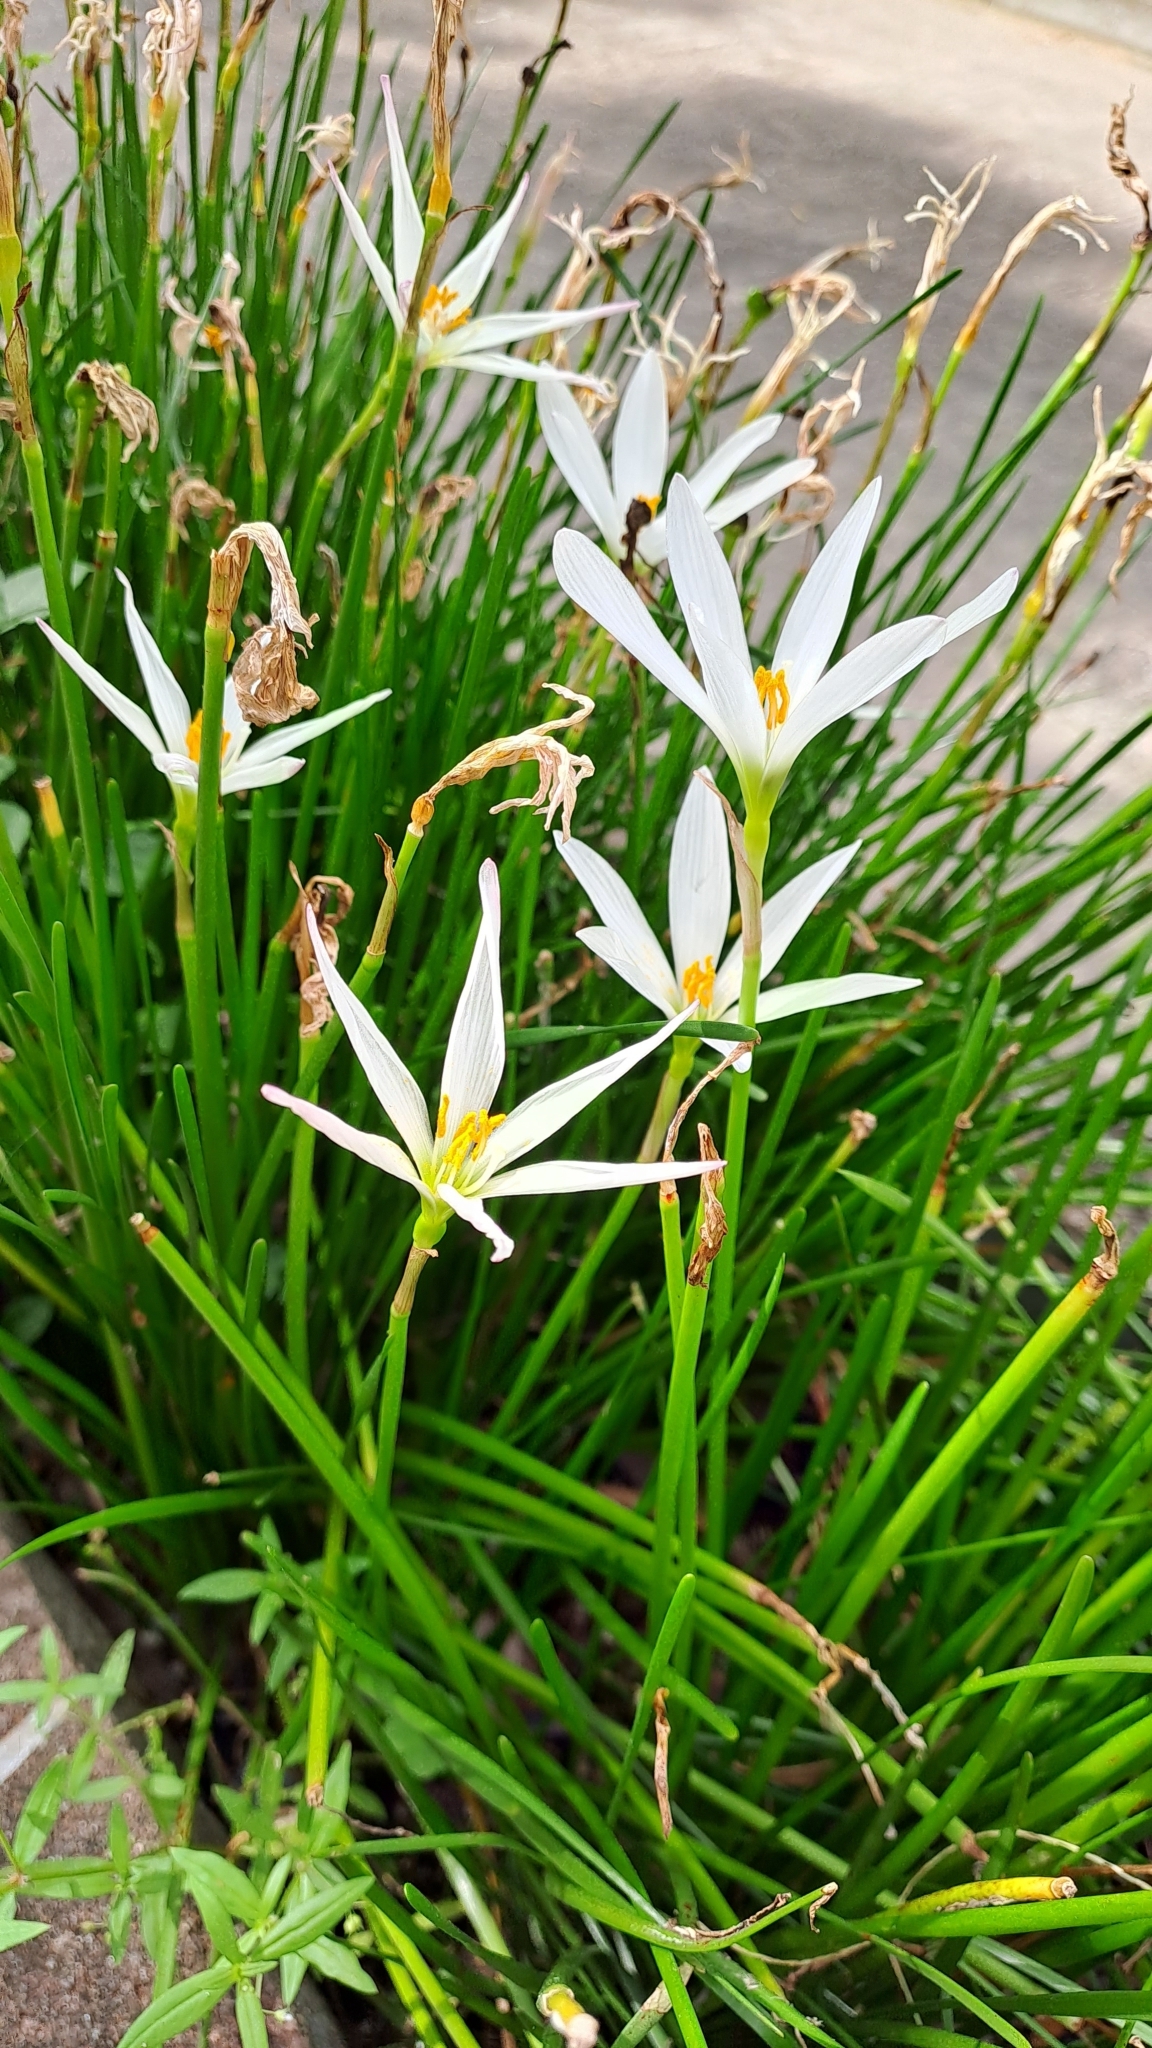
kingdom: Plantae
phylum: Tracheophyta
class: Liliopsida
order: Asparagales
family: Amaryllidaceae
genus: Zephyranthes
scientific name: Zephyranthes candida
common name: Autumn zephyrlily
